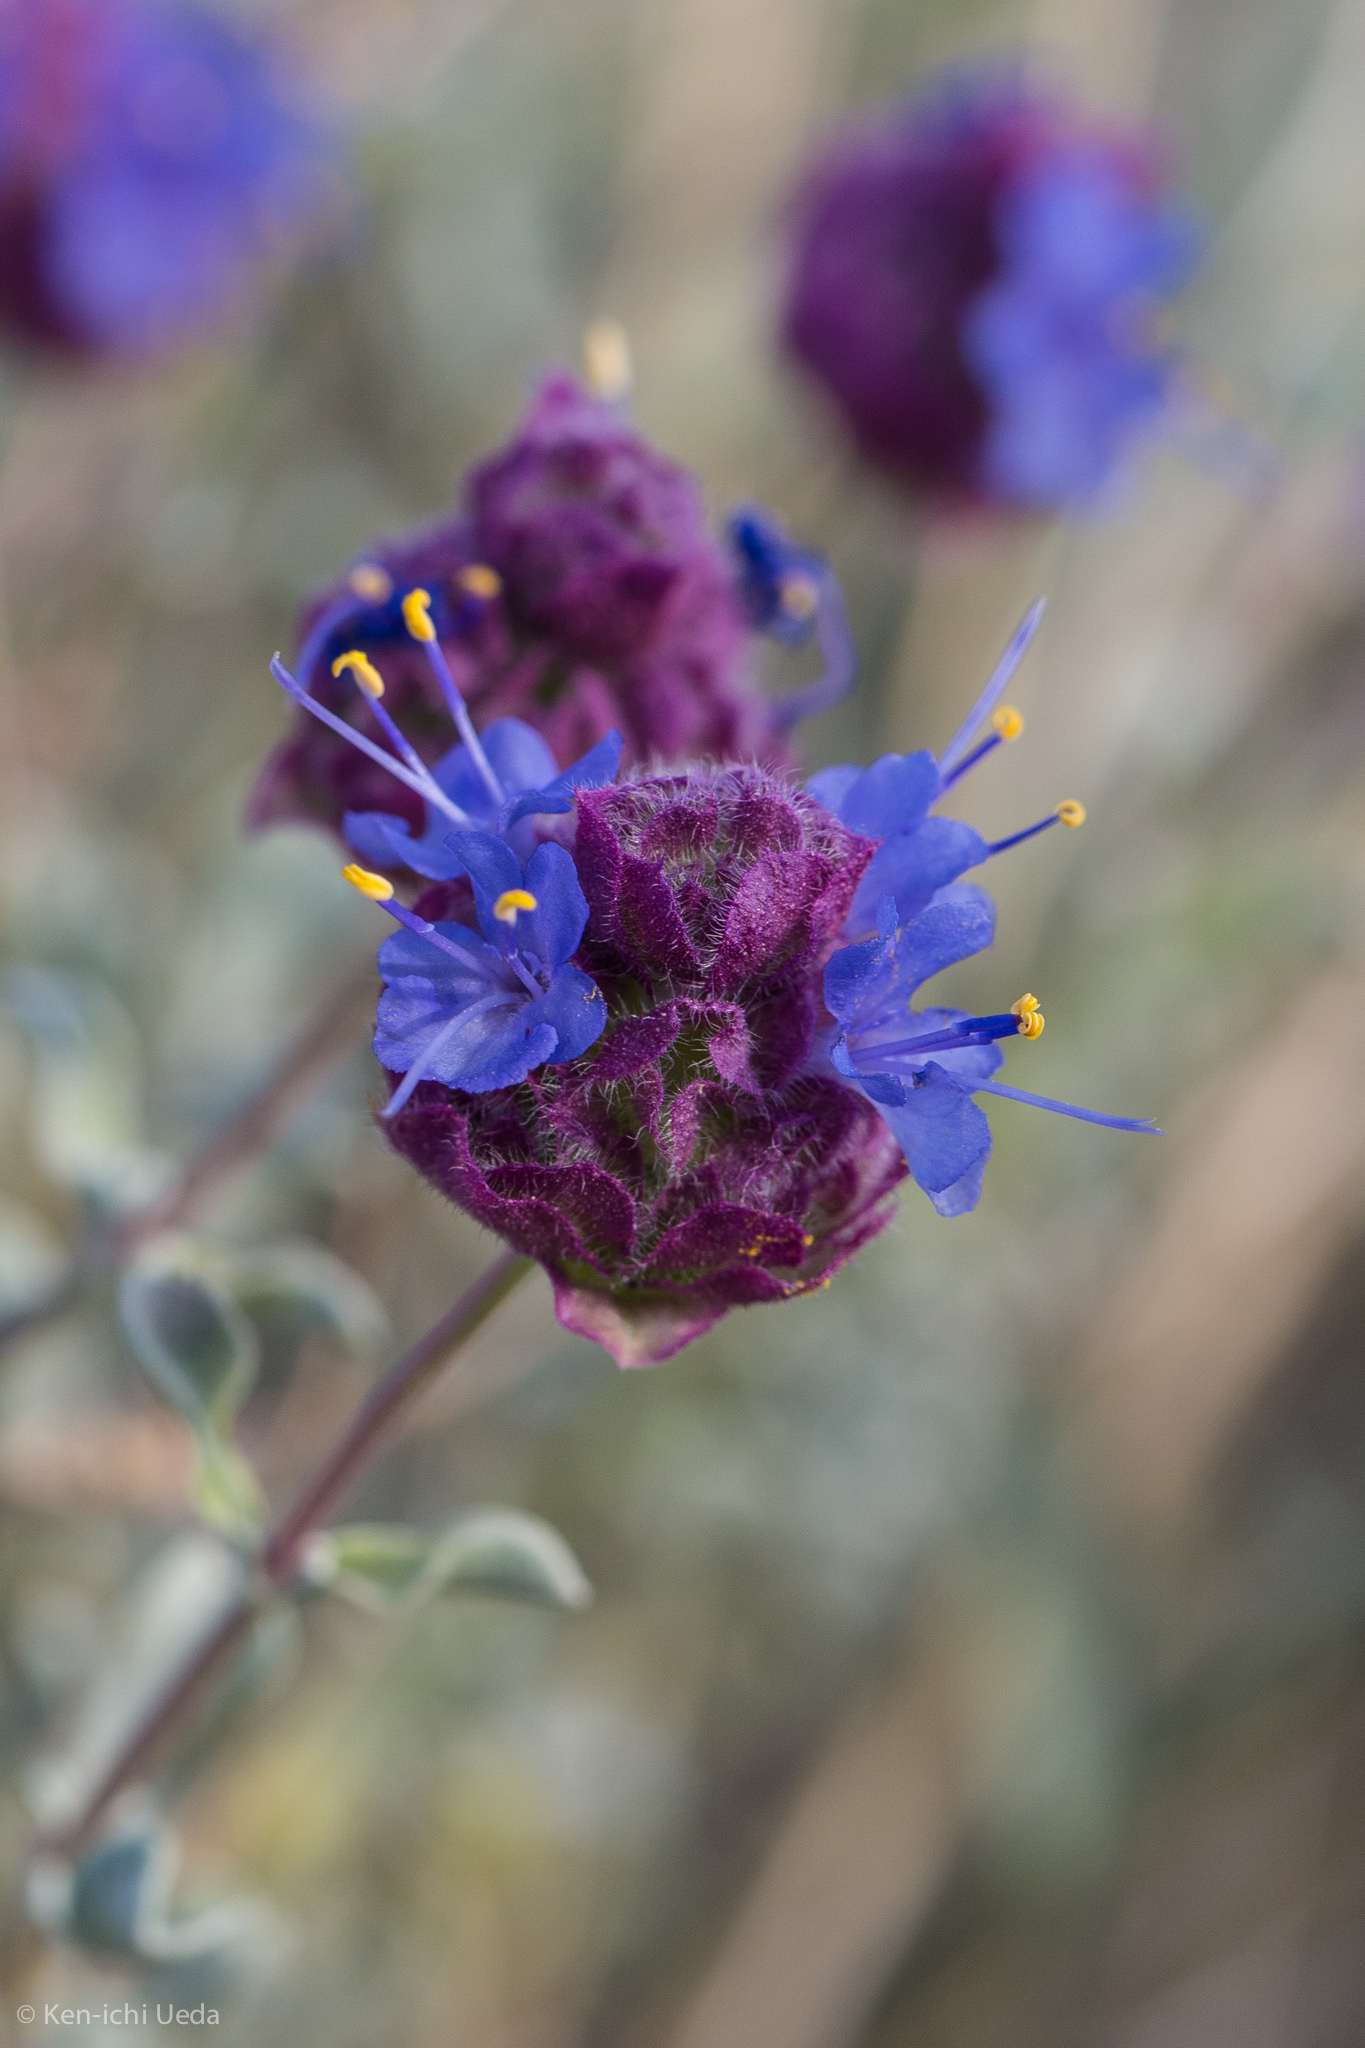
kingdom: Plantae
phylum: Tracheophyta
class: Magnoliopsida
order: Lamiales
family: Lamiaceae
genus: Salvia
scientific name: Salvia dorrii
